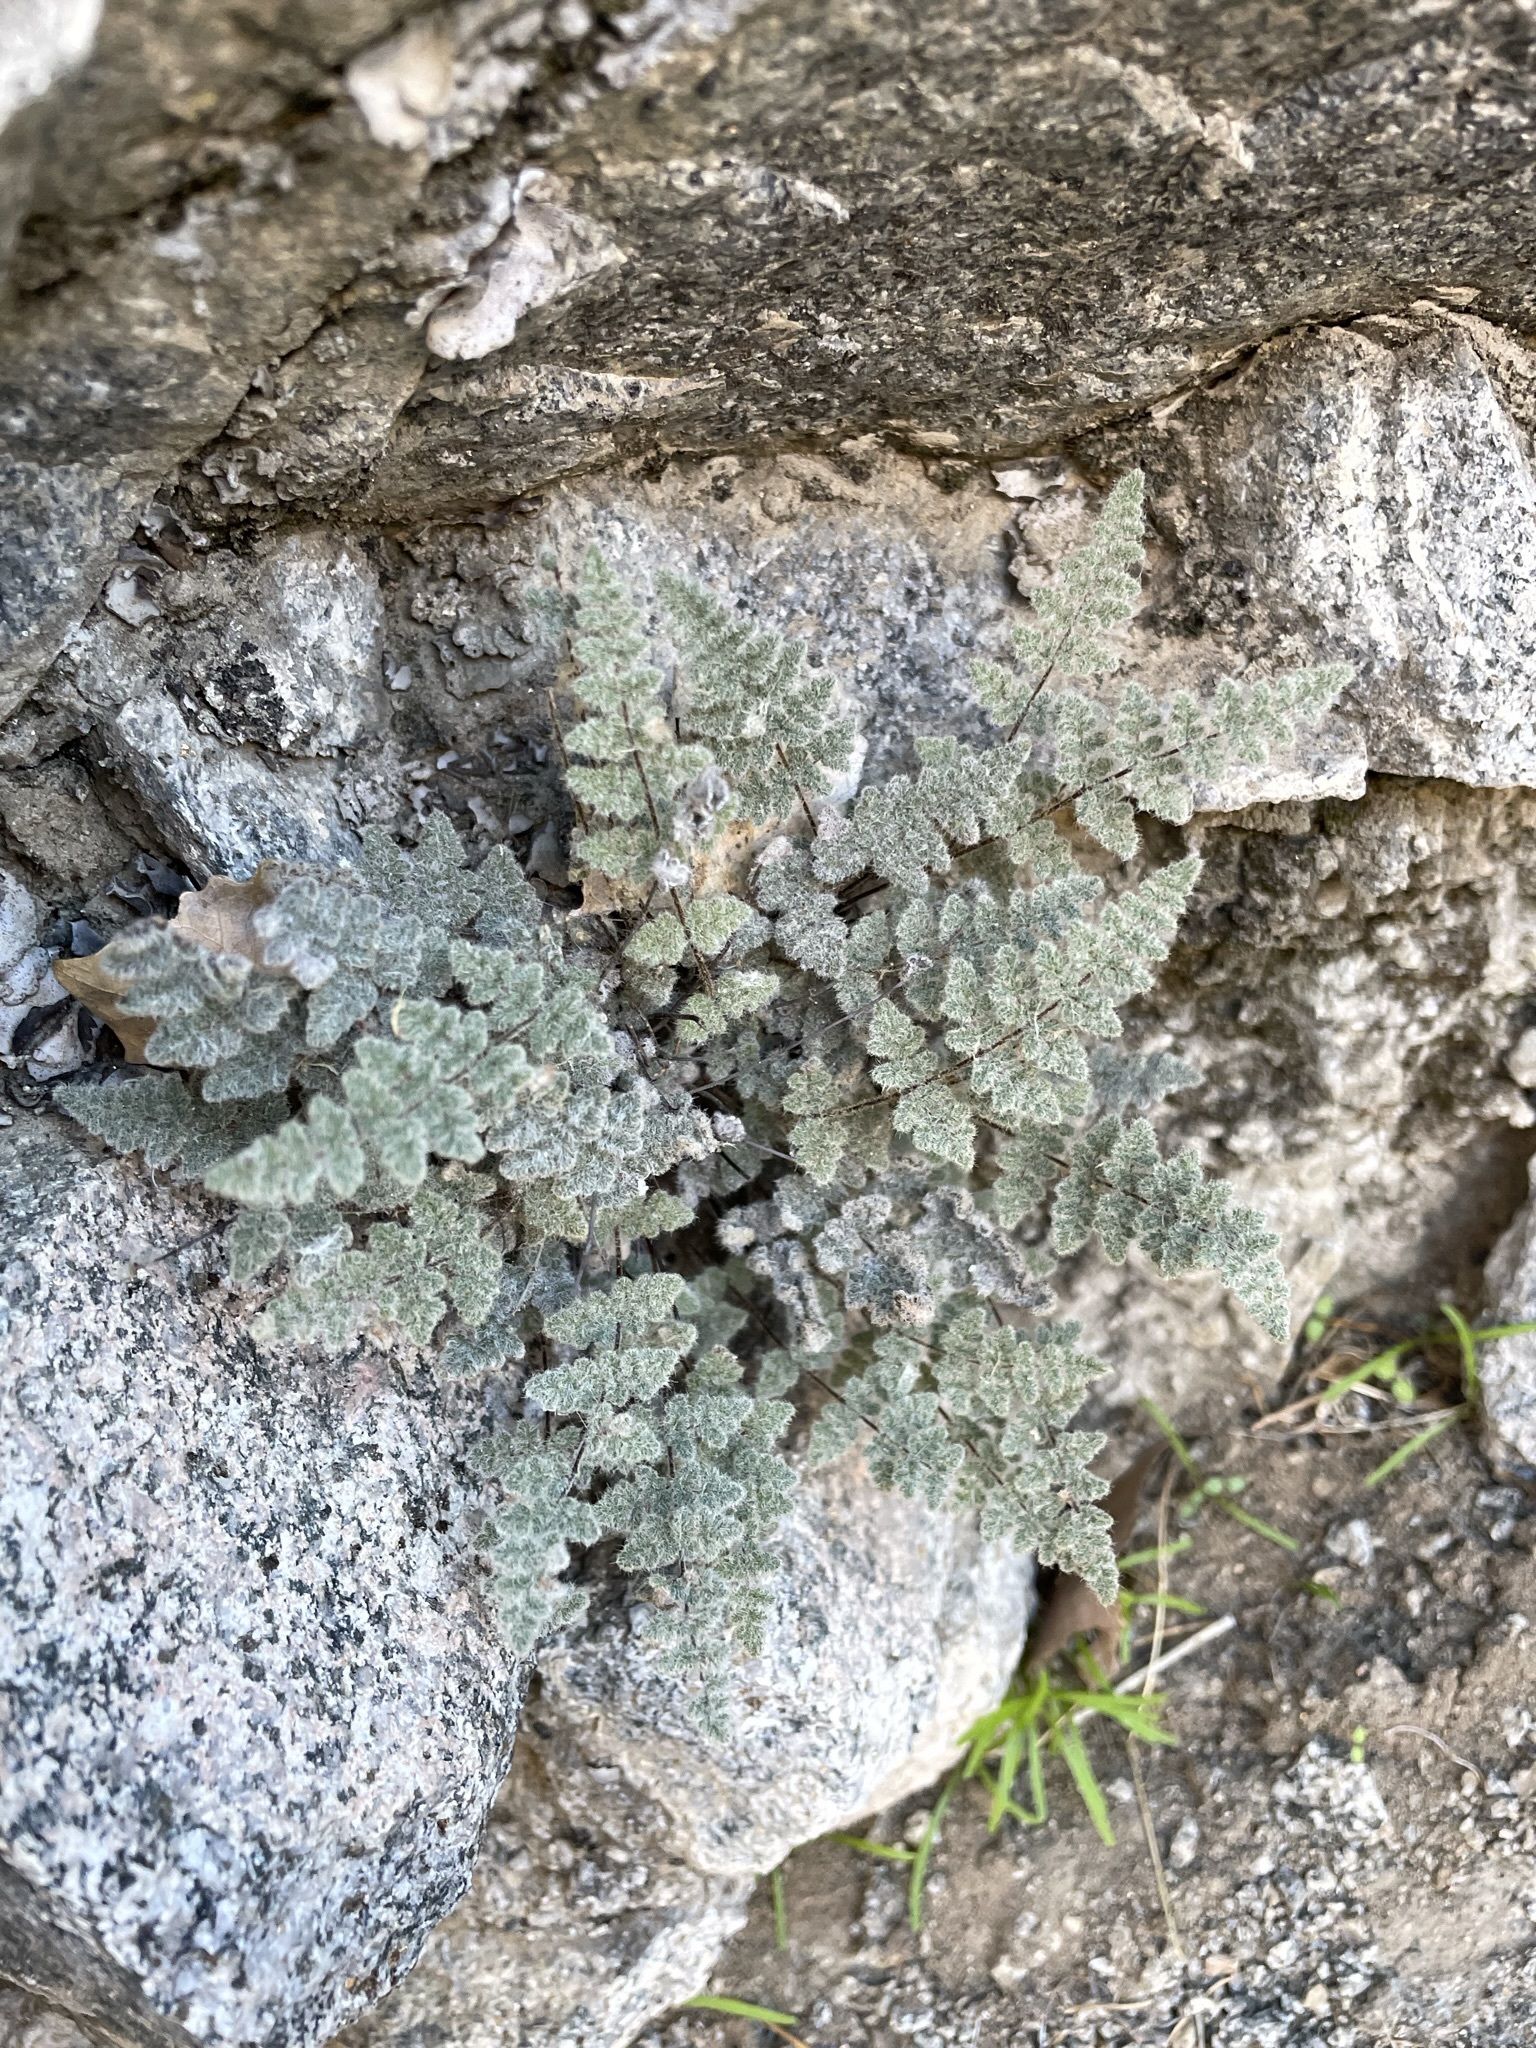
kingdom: Plantae
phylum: Tracheophyta
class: Polypodiopsida
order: Polypodiales
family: Pteridaceae
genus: Myriopteris
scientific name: Myriopteris parryi
